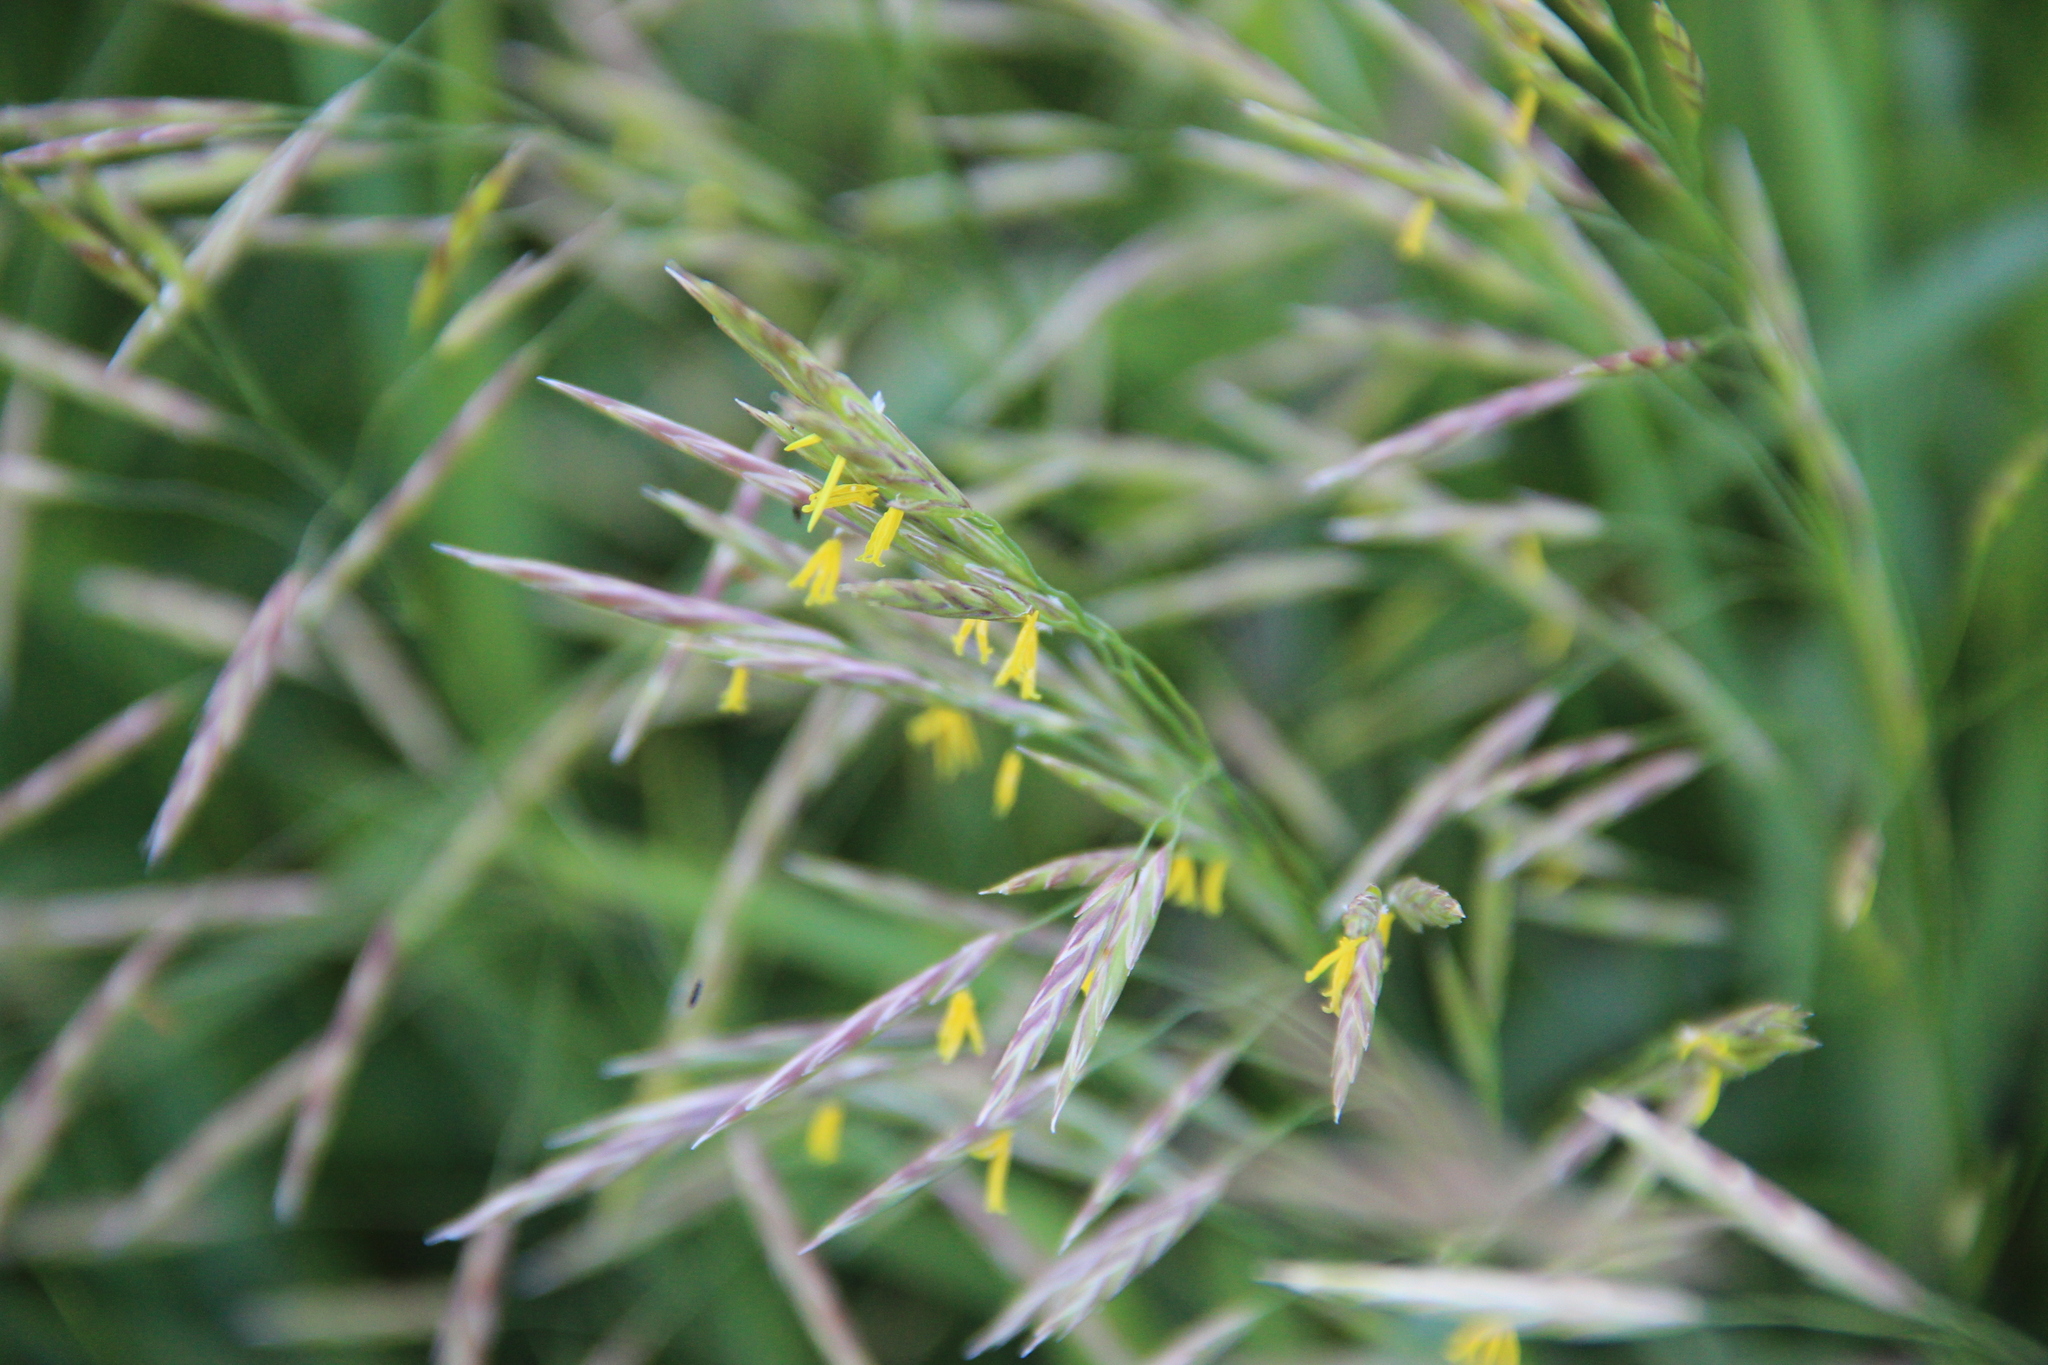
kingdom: Plantae
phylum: Tracheophyta
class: Liliopsida
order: Poales
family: Poaceae
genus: Bromus
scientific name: Bromus inermis
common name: Smooth brome
